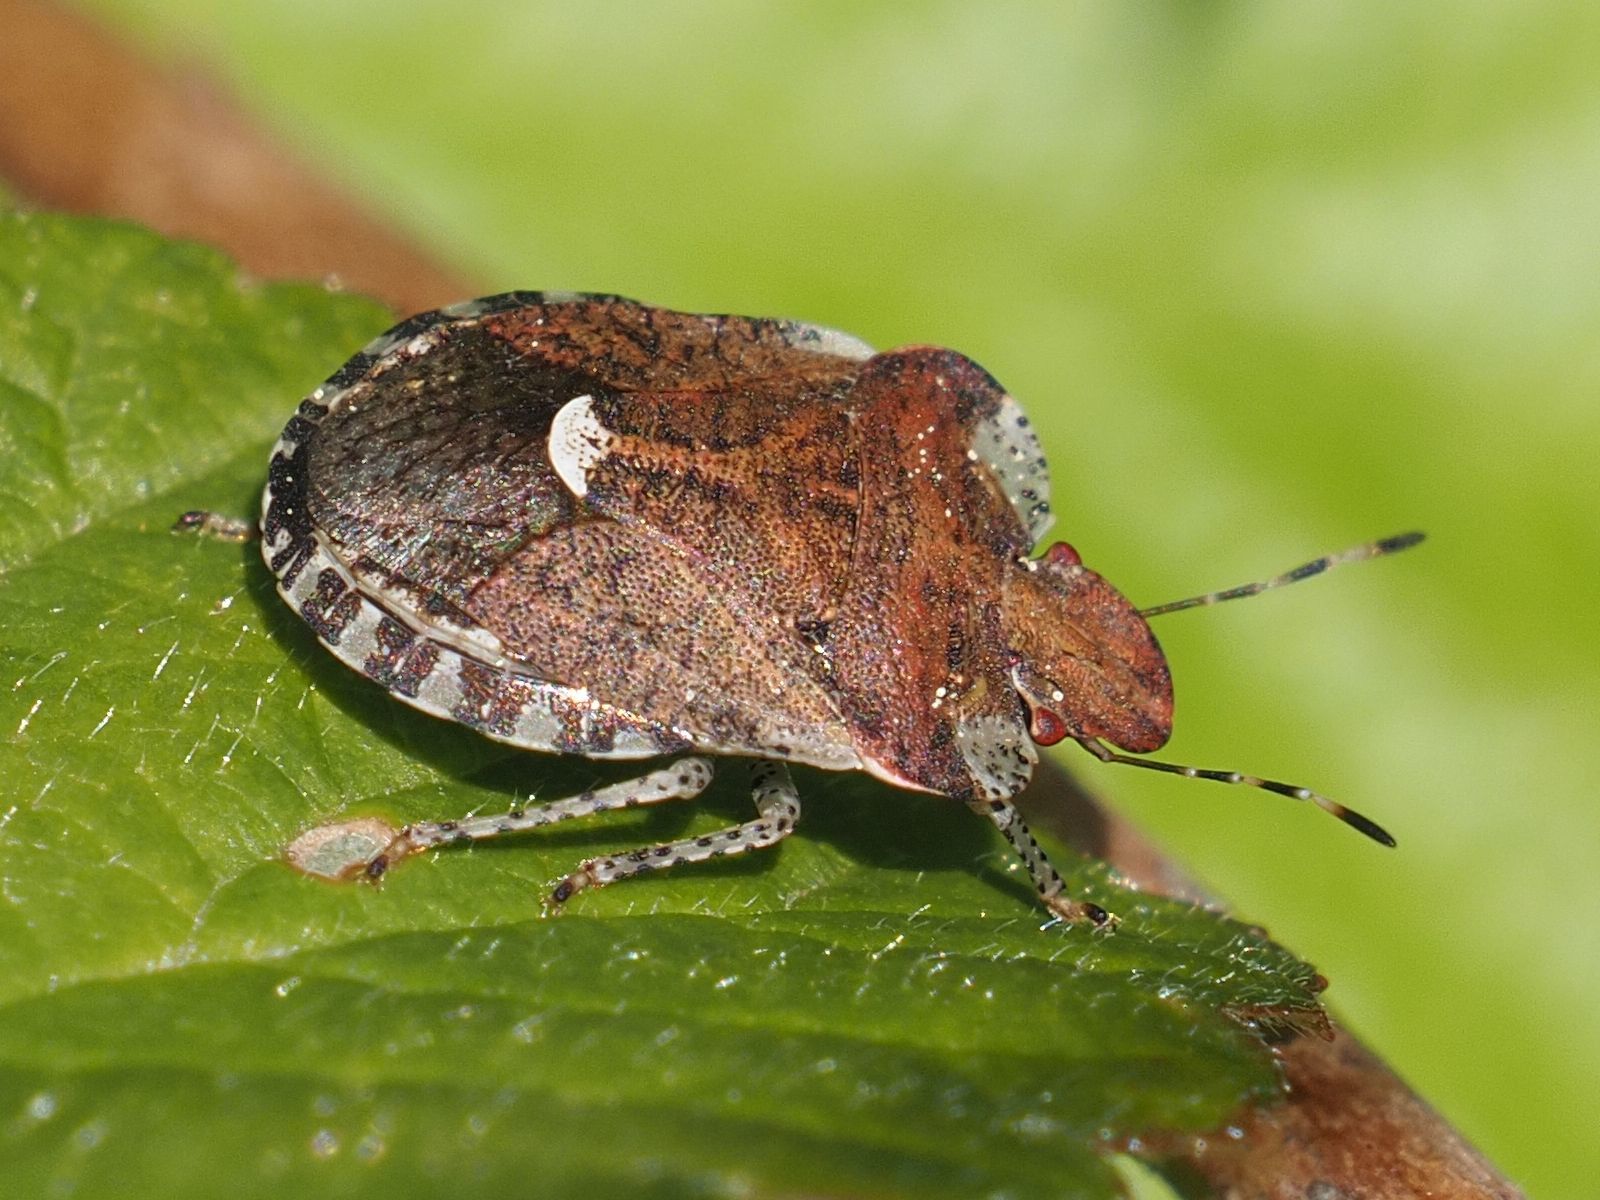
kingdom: Animalia
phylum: Arthropoda
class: Insecta
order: Hemiptera
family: Pentatomidae
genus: Dyroderes
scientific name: Dyroderes umbraculatus
